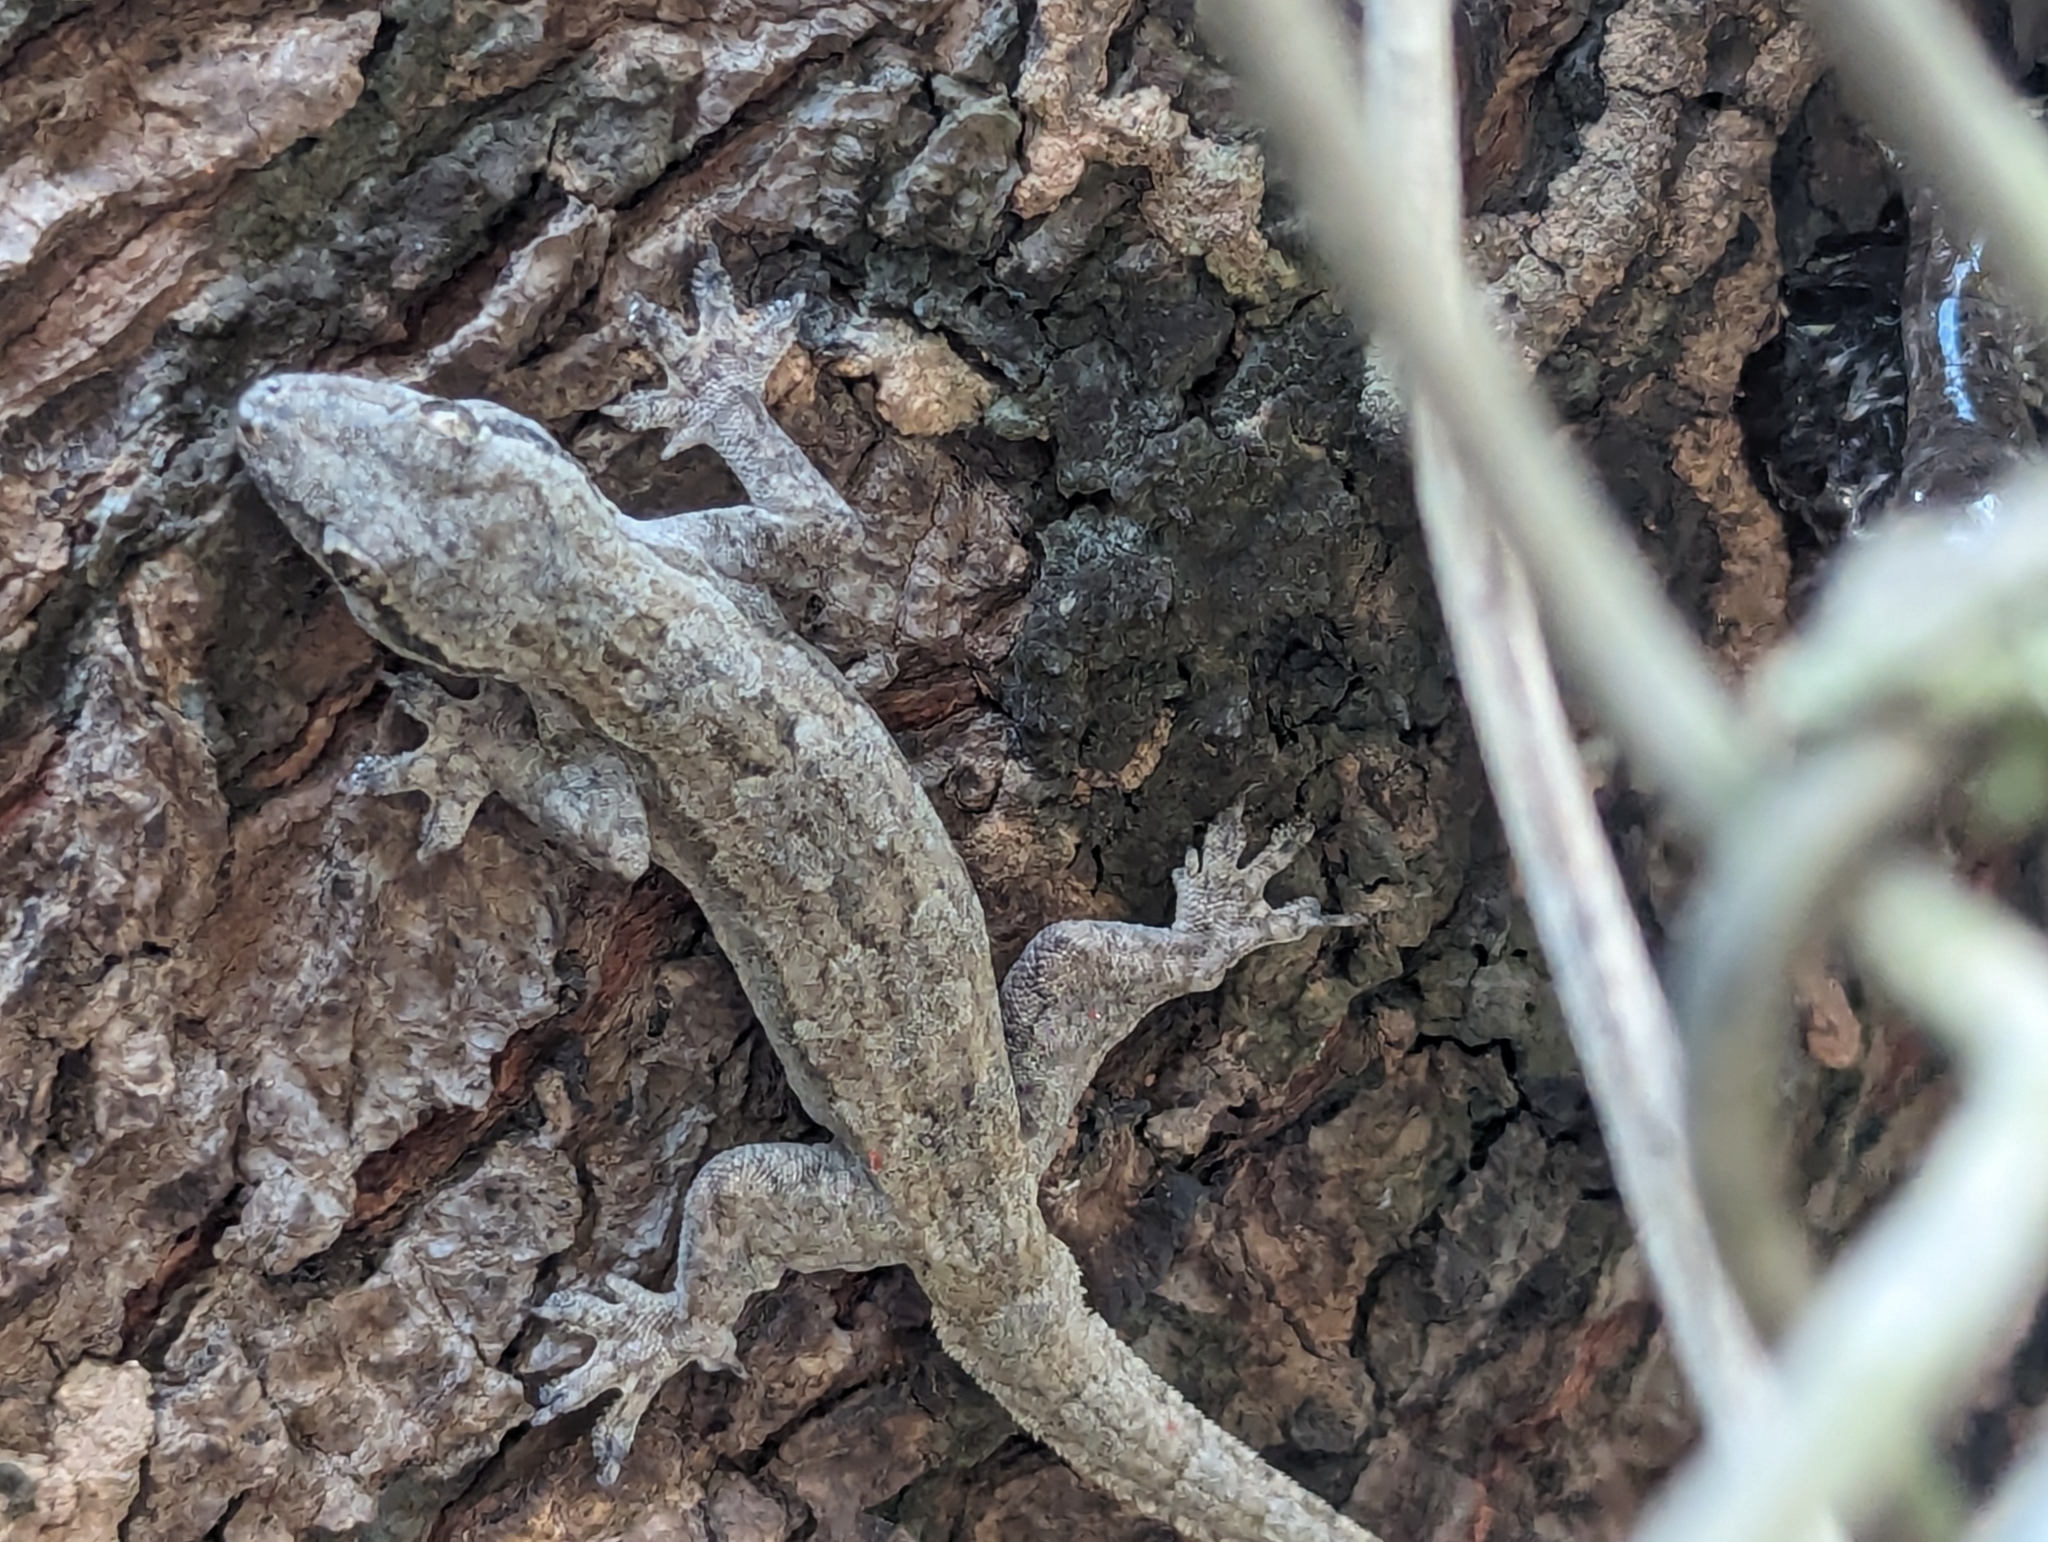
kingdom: Animalia
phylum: Chordata
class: Squamata
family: Gekkonidae
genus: Hemidactylus
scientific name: Hemidactylus platyurus
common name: Flat-tailed house gecko
